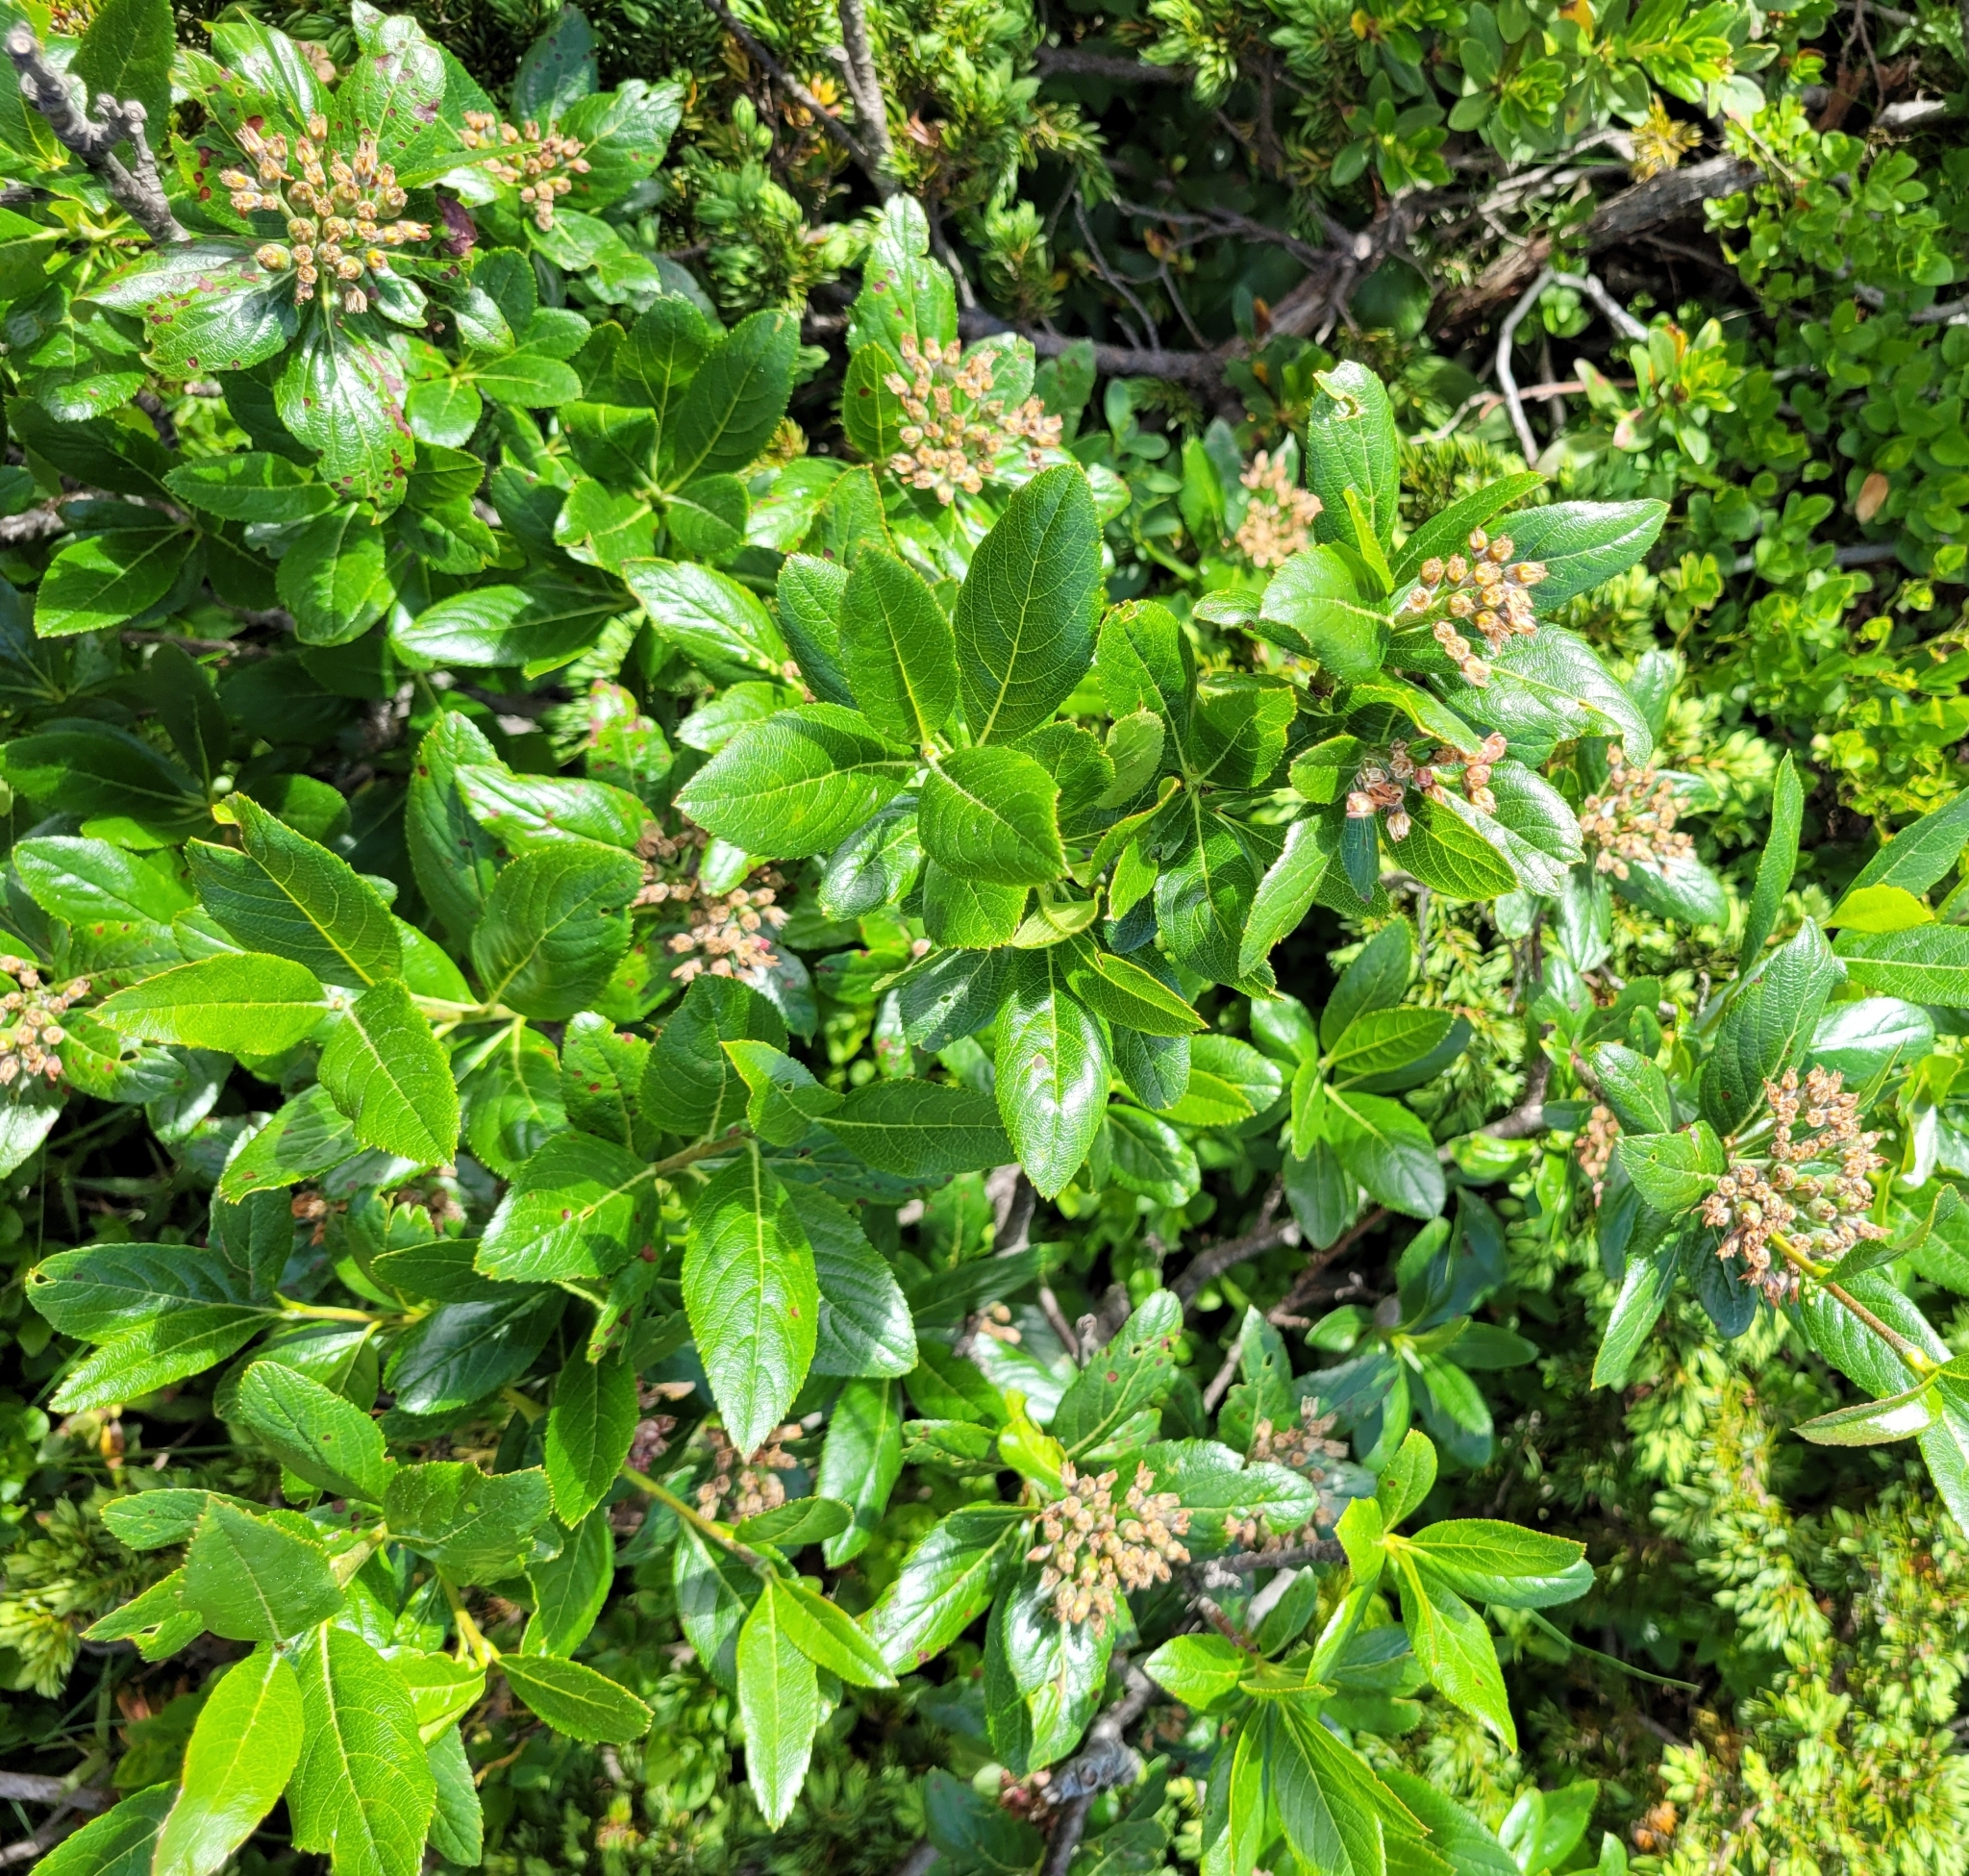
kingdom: Plantae
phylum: Tracheophyta
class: Magnoliopsida
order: Rosales
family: Rosaceae
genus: Chamaemespilus
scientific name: Chamaemespilus alpina
